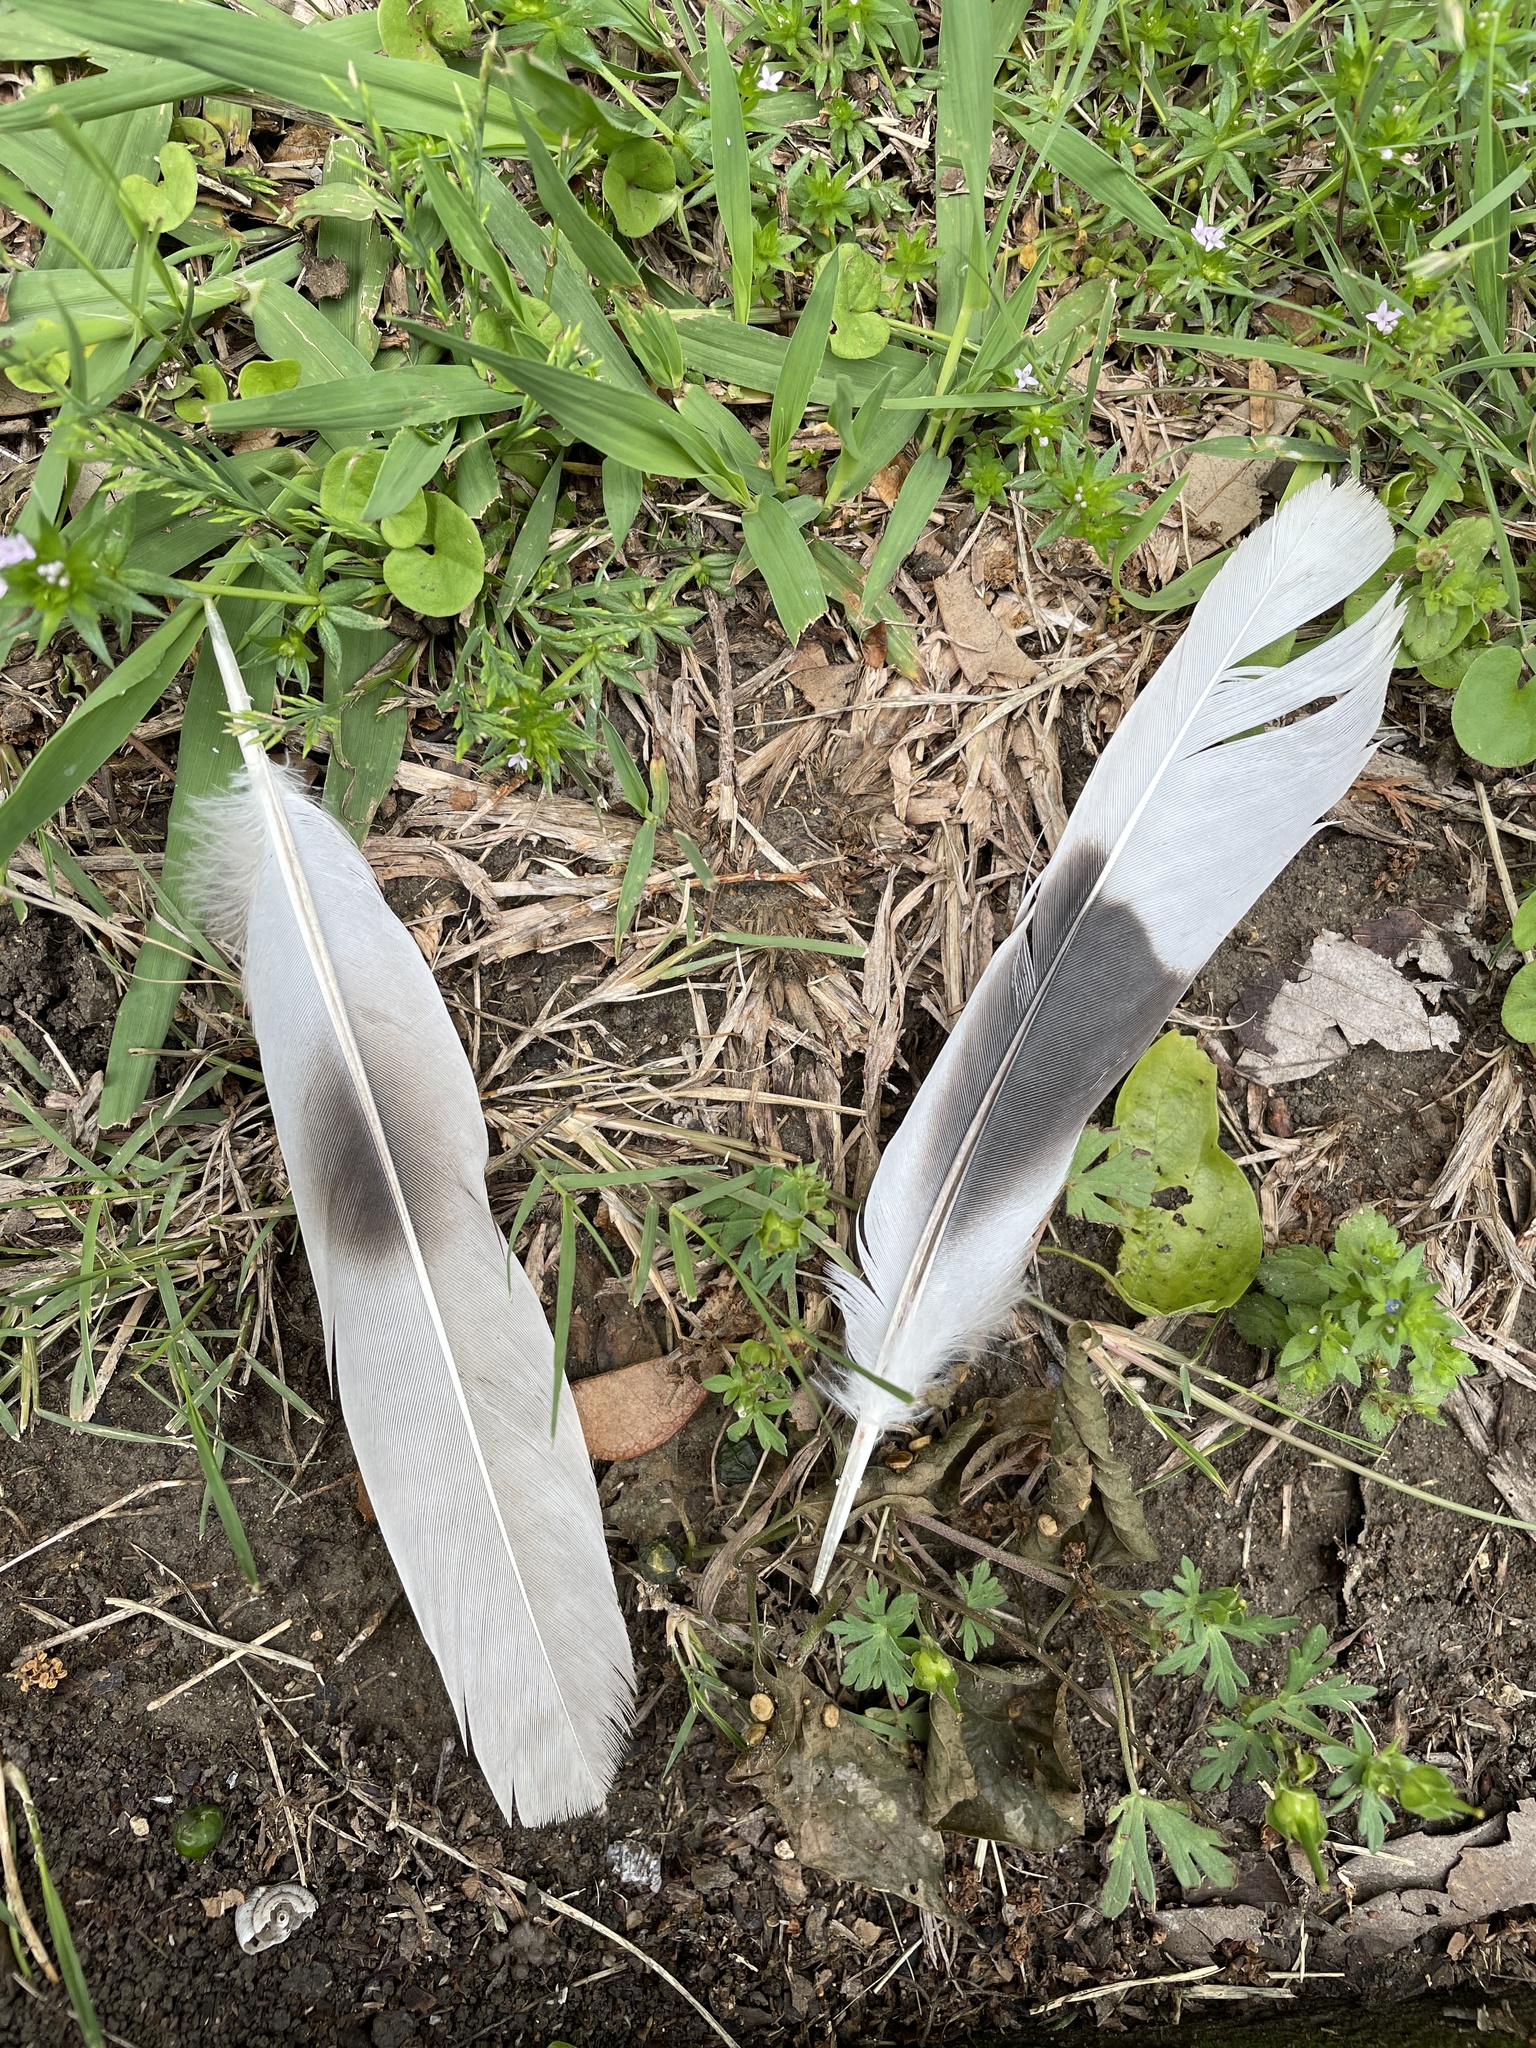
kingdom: Animalia
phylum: Chordata
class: Aves
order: Columbiformes
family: Columbidae
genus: Streptopelia
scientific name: Streptopelia decaocto
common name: Eurasian collared dove
